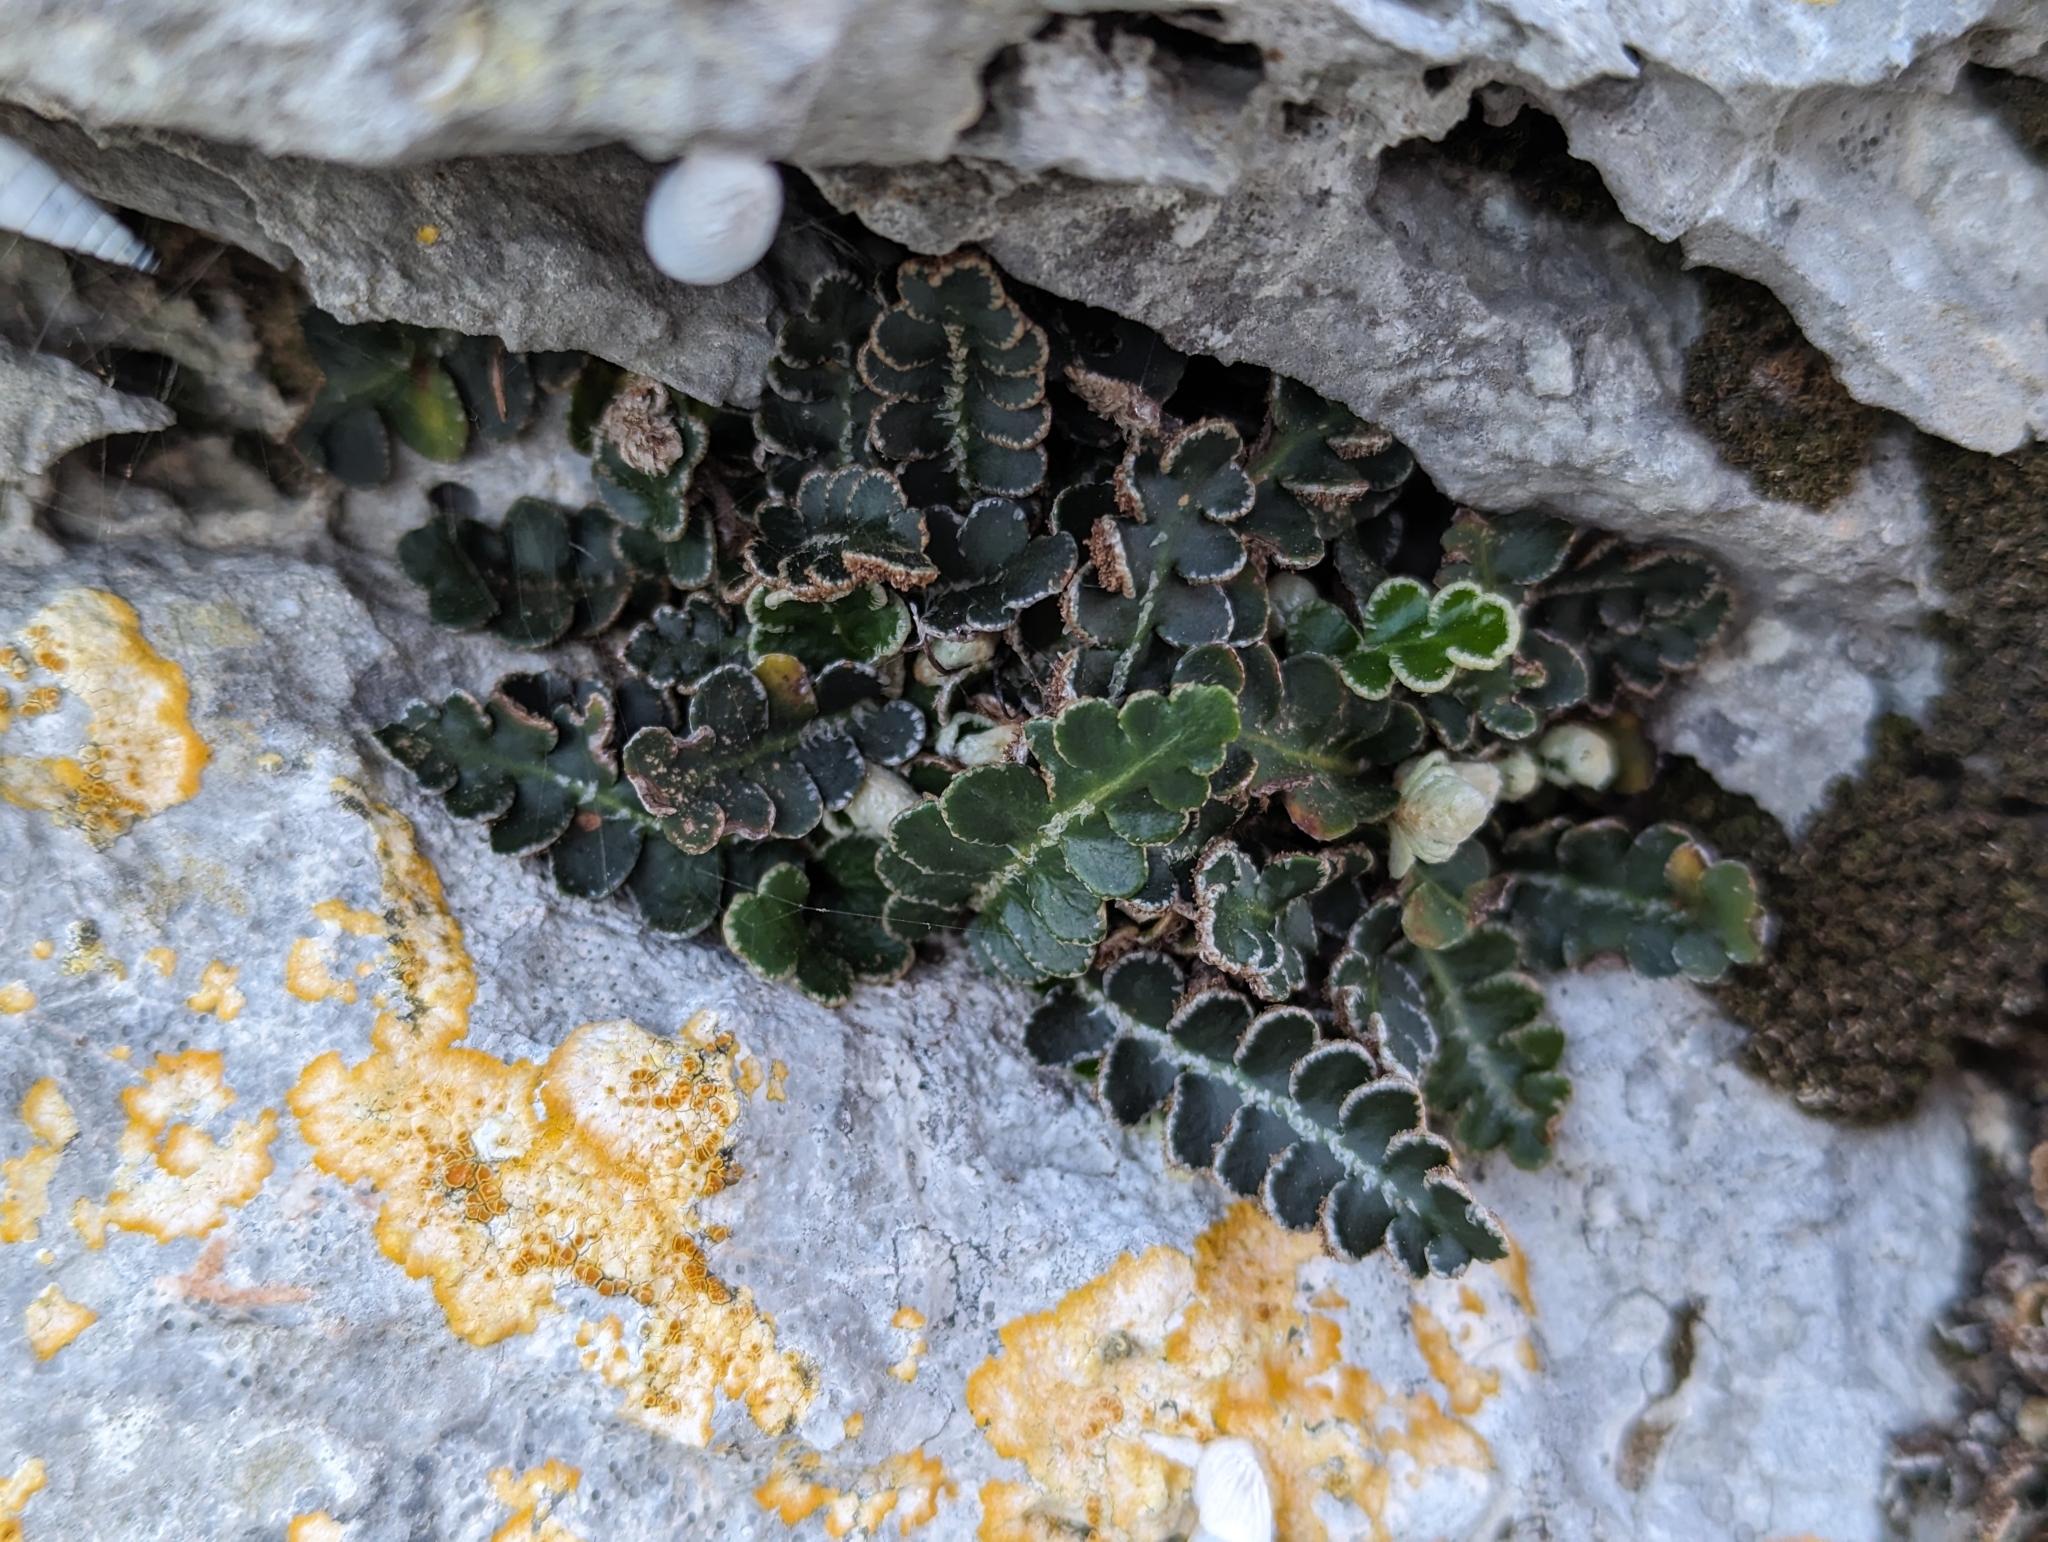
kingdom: Plantae
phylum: Tracheophyta
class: Polypodiopsida
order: Polypodiales
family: Aspleniaceae
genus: Asplenium
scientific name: Asplenium ceterach
